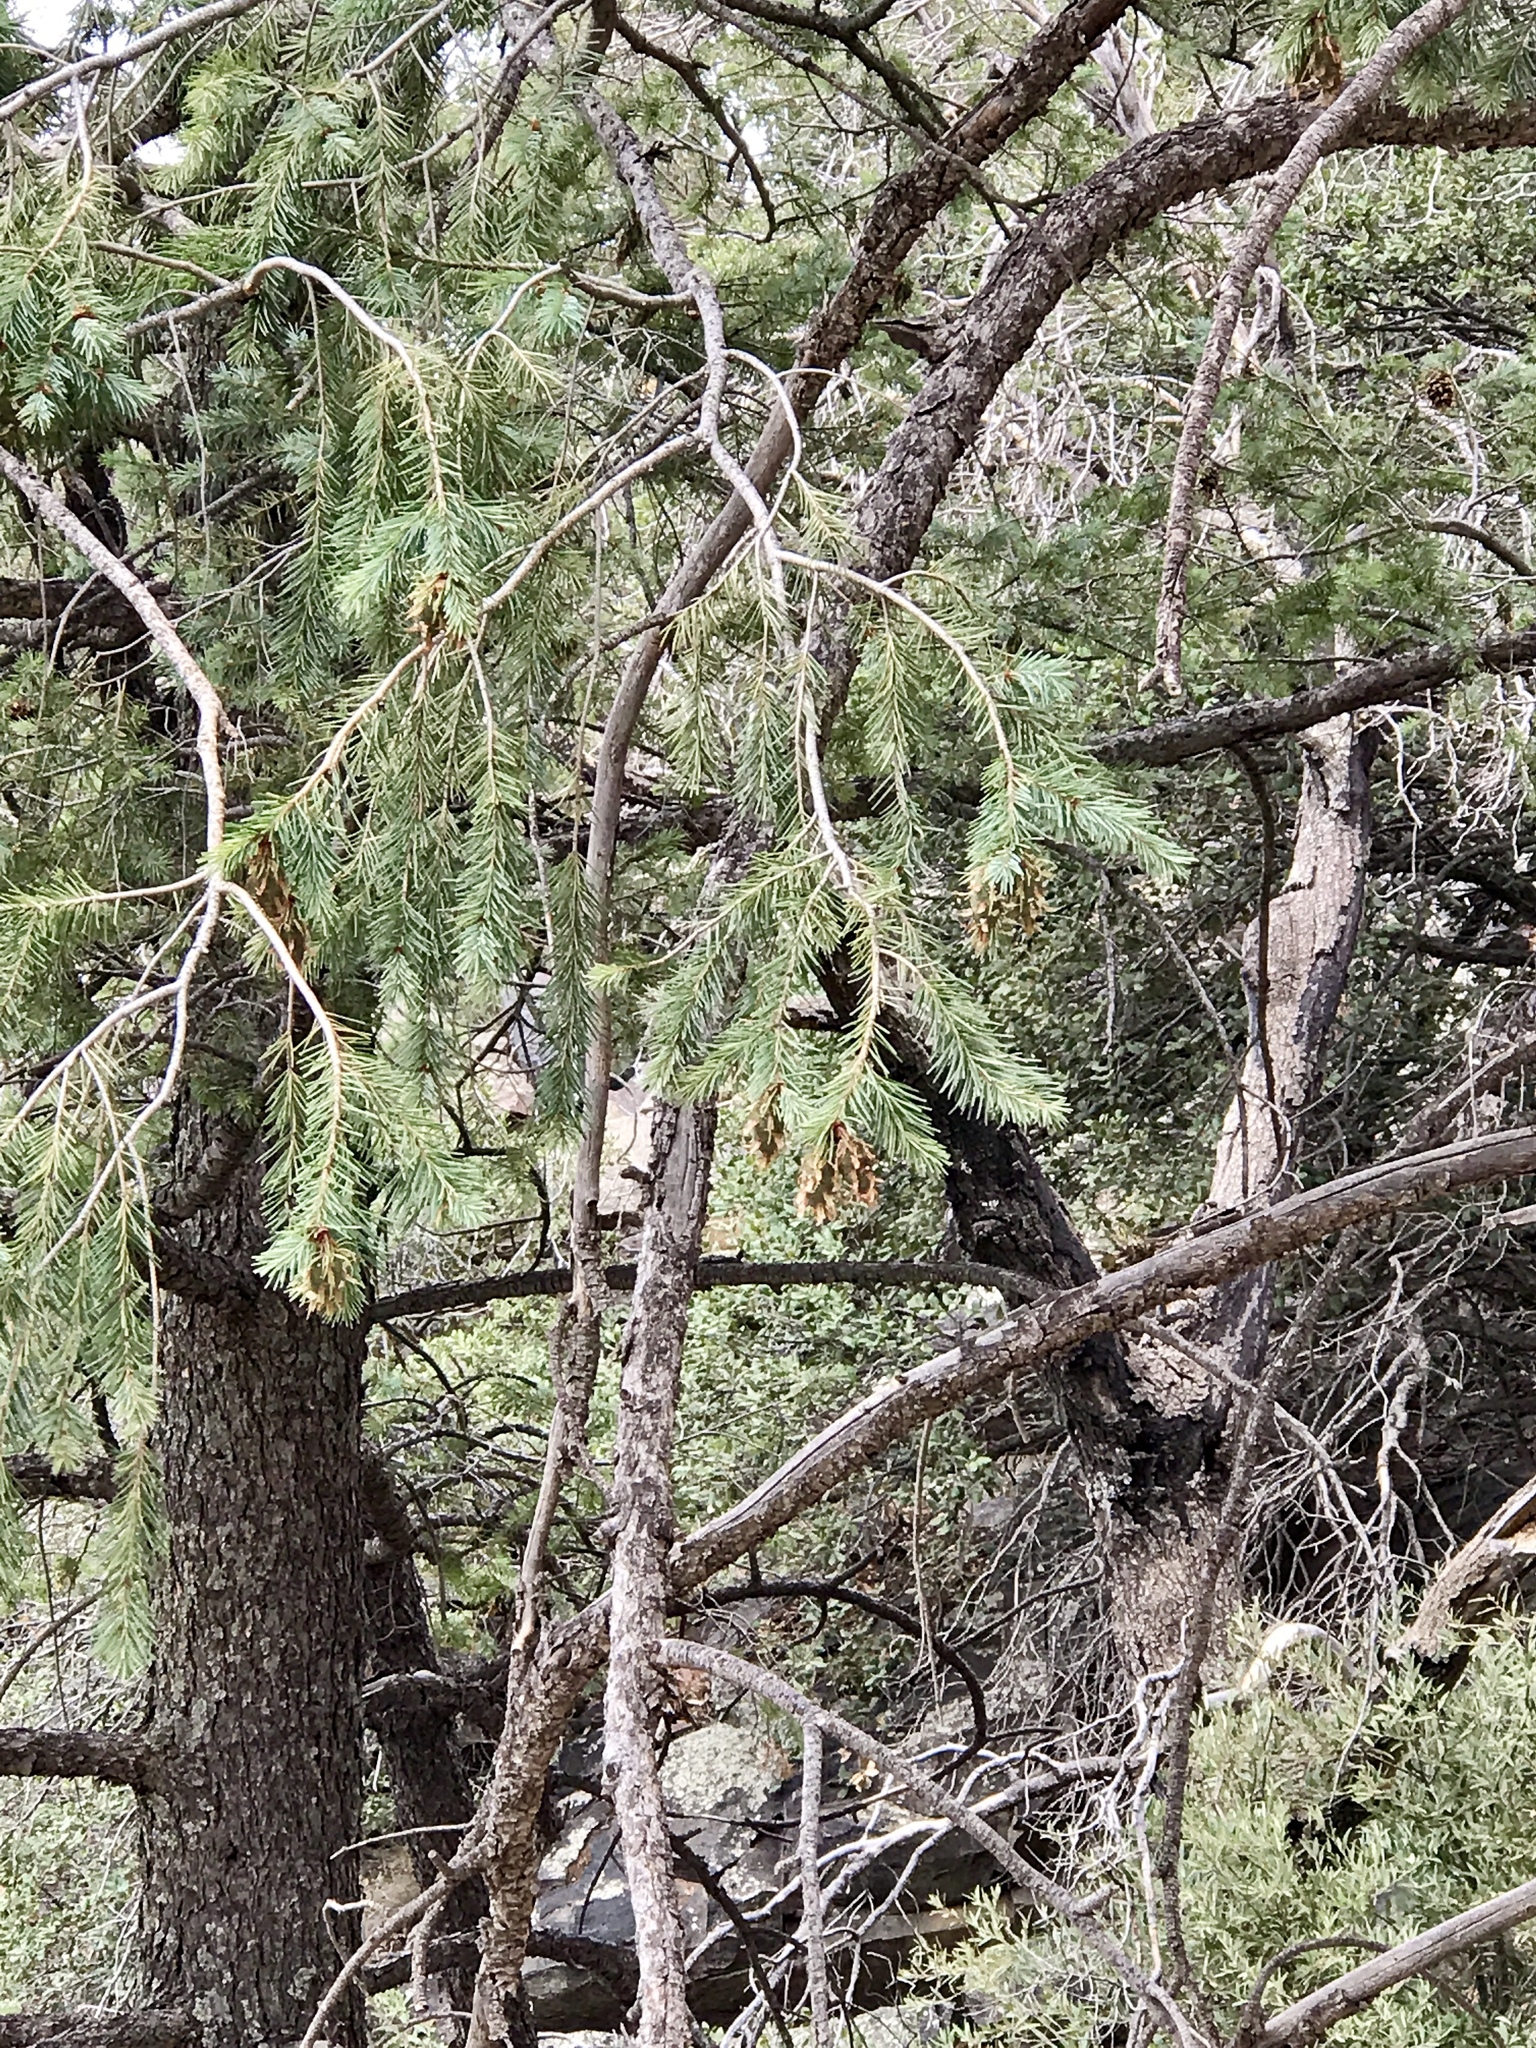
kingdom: Plantae
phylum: Tracheophyta
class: Pinopsida
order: Pinales
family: Pinaceae
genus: Pseudotsuga
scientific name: Pseudotsuga menziesii
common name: Douglas fir
